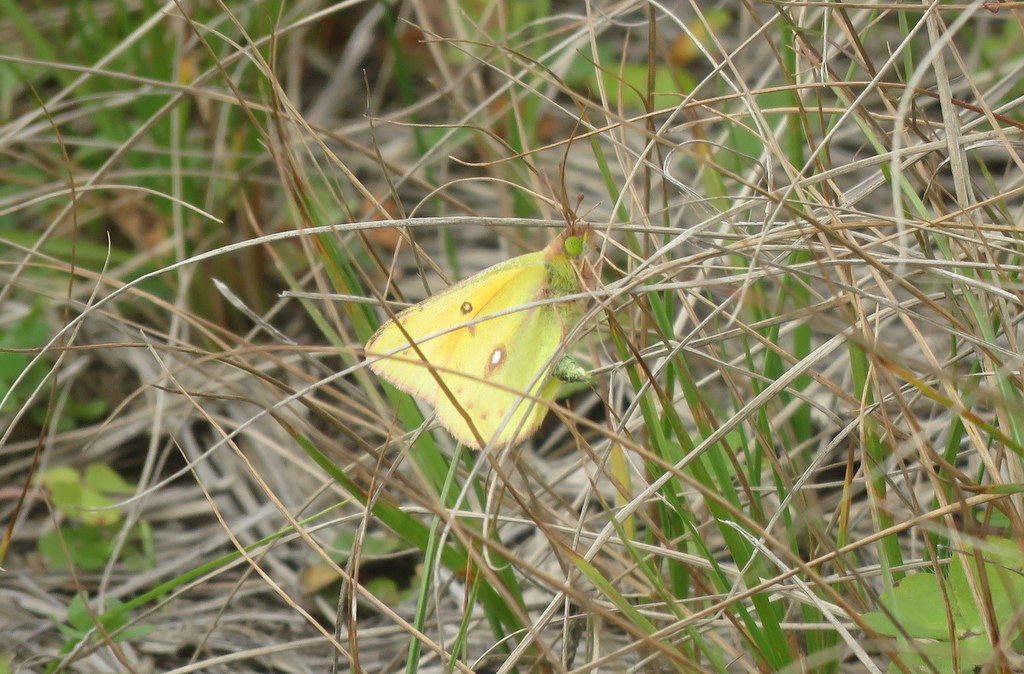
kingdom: Animalia
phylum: Arthropoda
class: Insecta
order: Lepidoptera
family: Pieridae
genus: Colias
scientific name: Colias lesbia
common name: Lesbia clouded yellow
